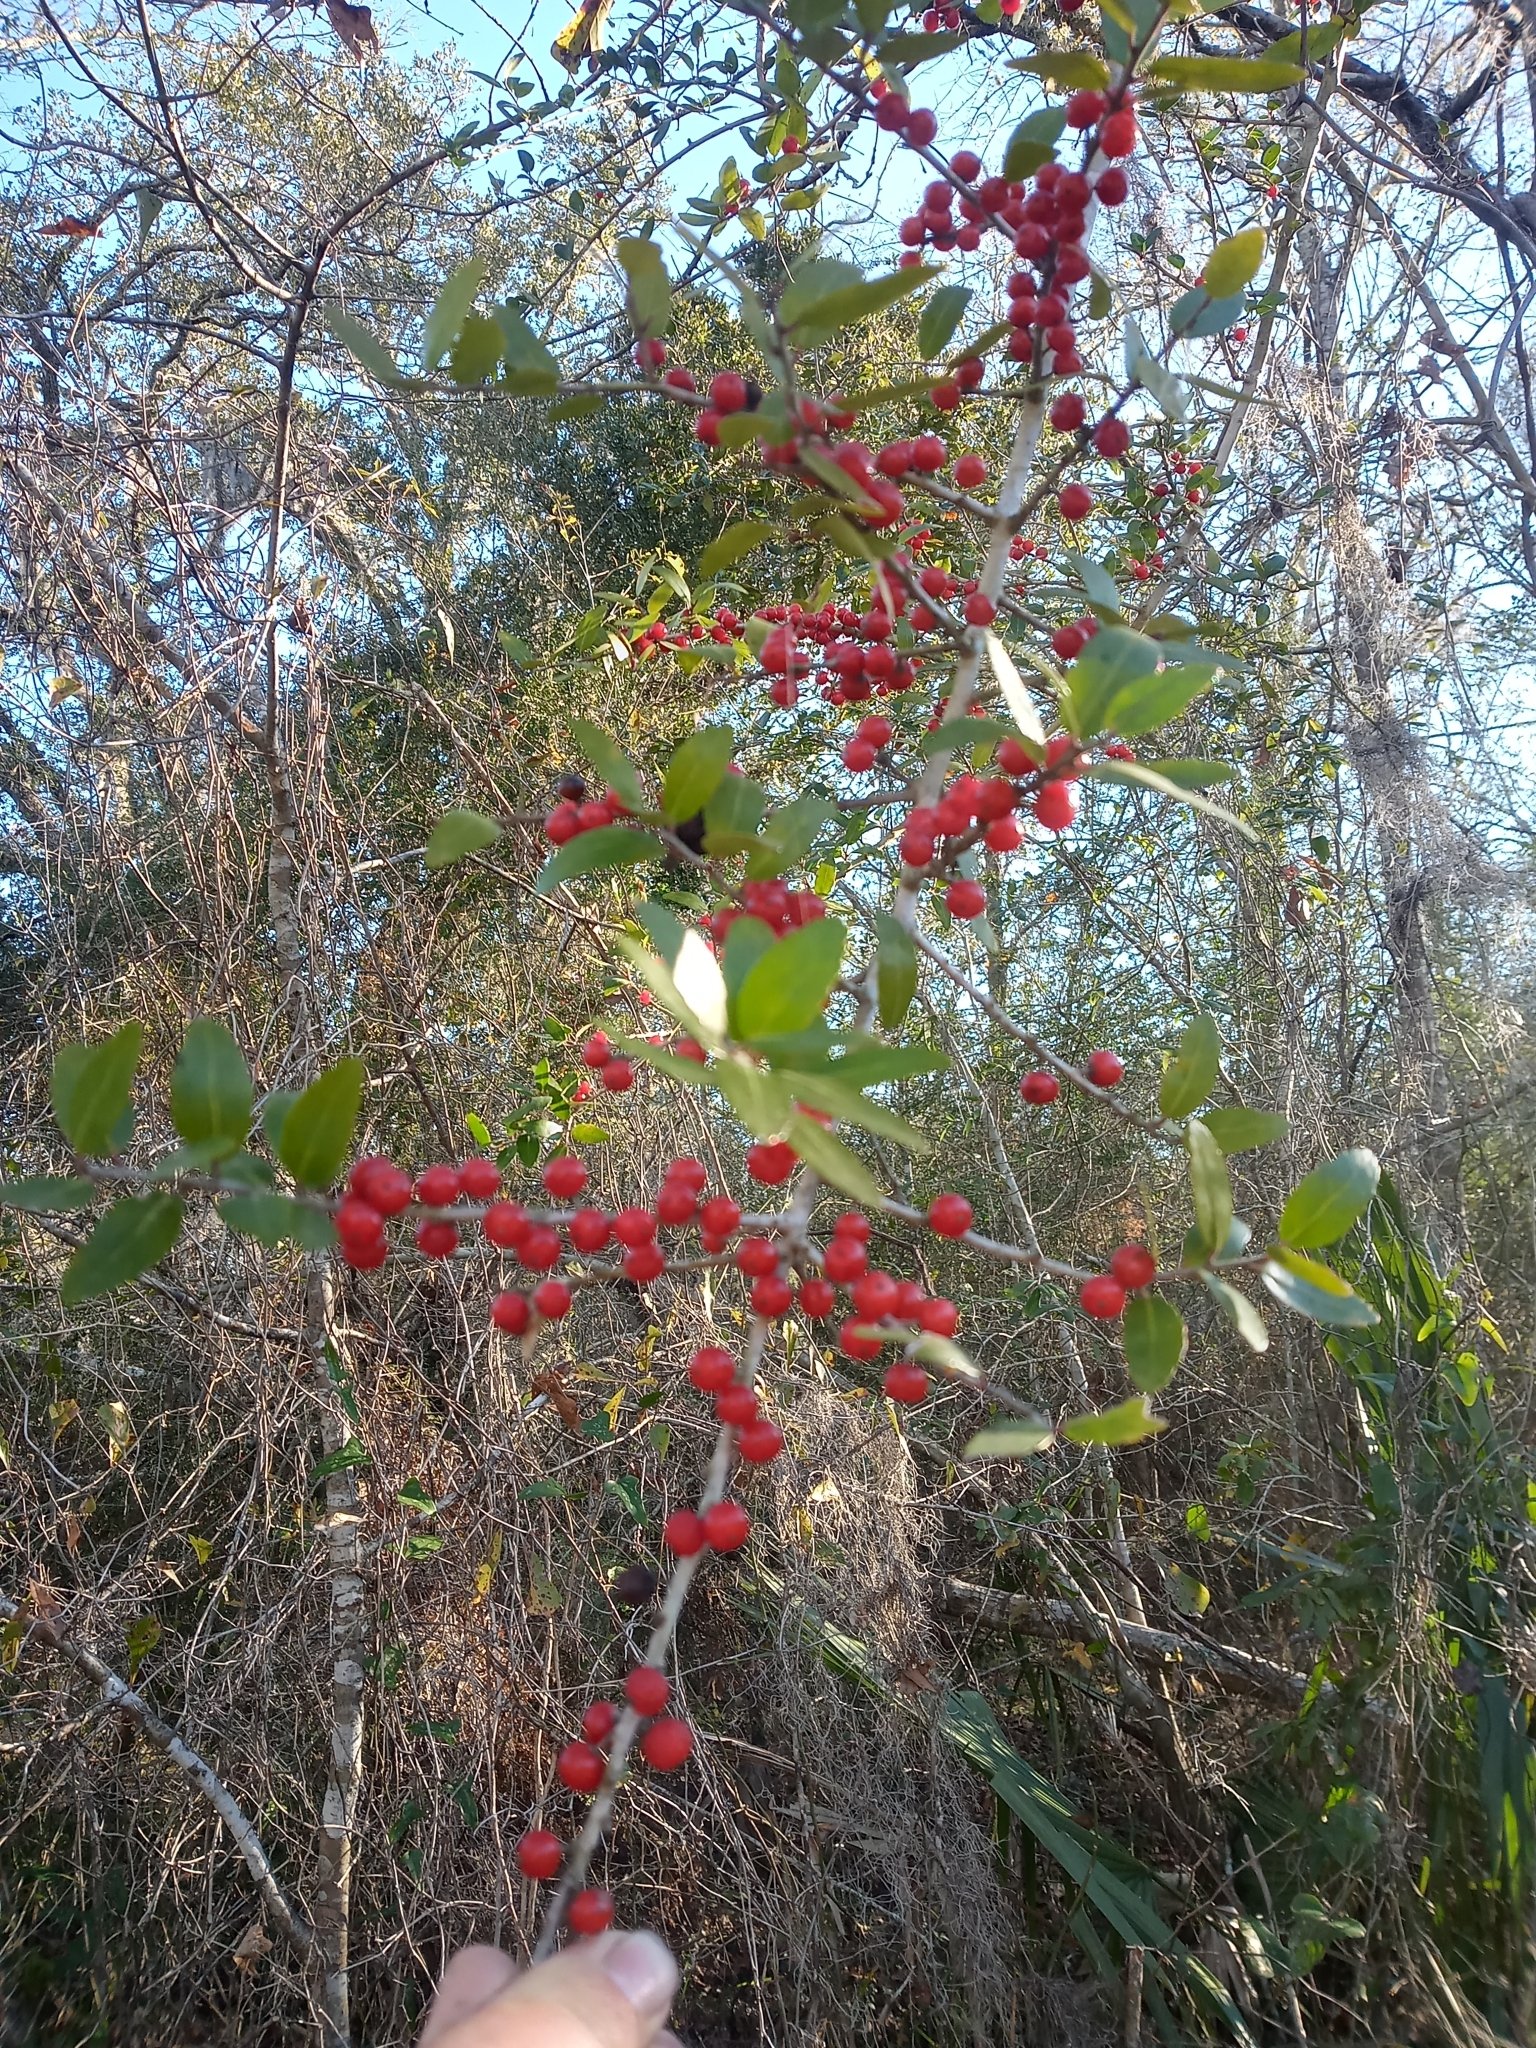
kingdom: Plantae
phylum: Tracheophyta
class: Magnoliopsida
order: Aquifoliales
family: Aquifoliaceae
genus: Ilex
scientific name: Ilex vomitoria
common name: Yaupon holly
